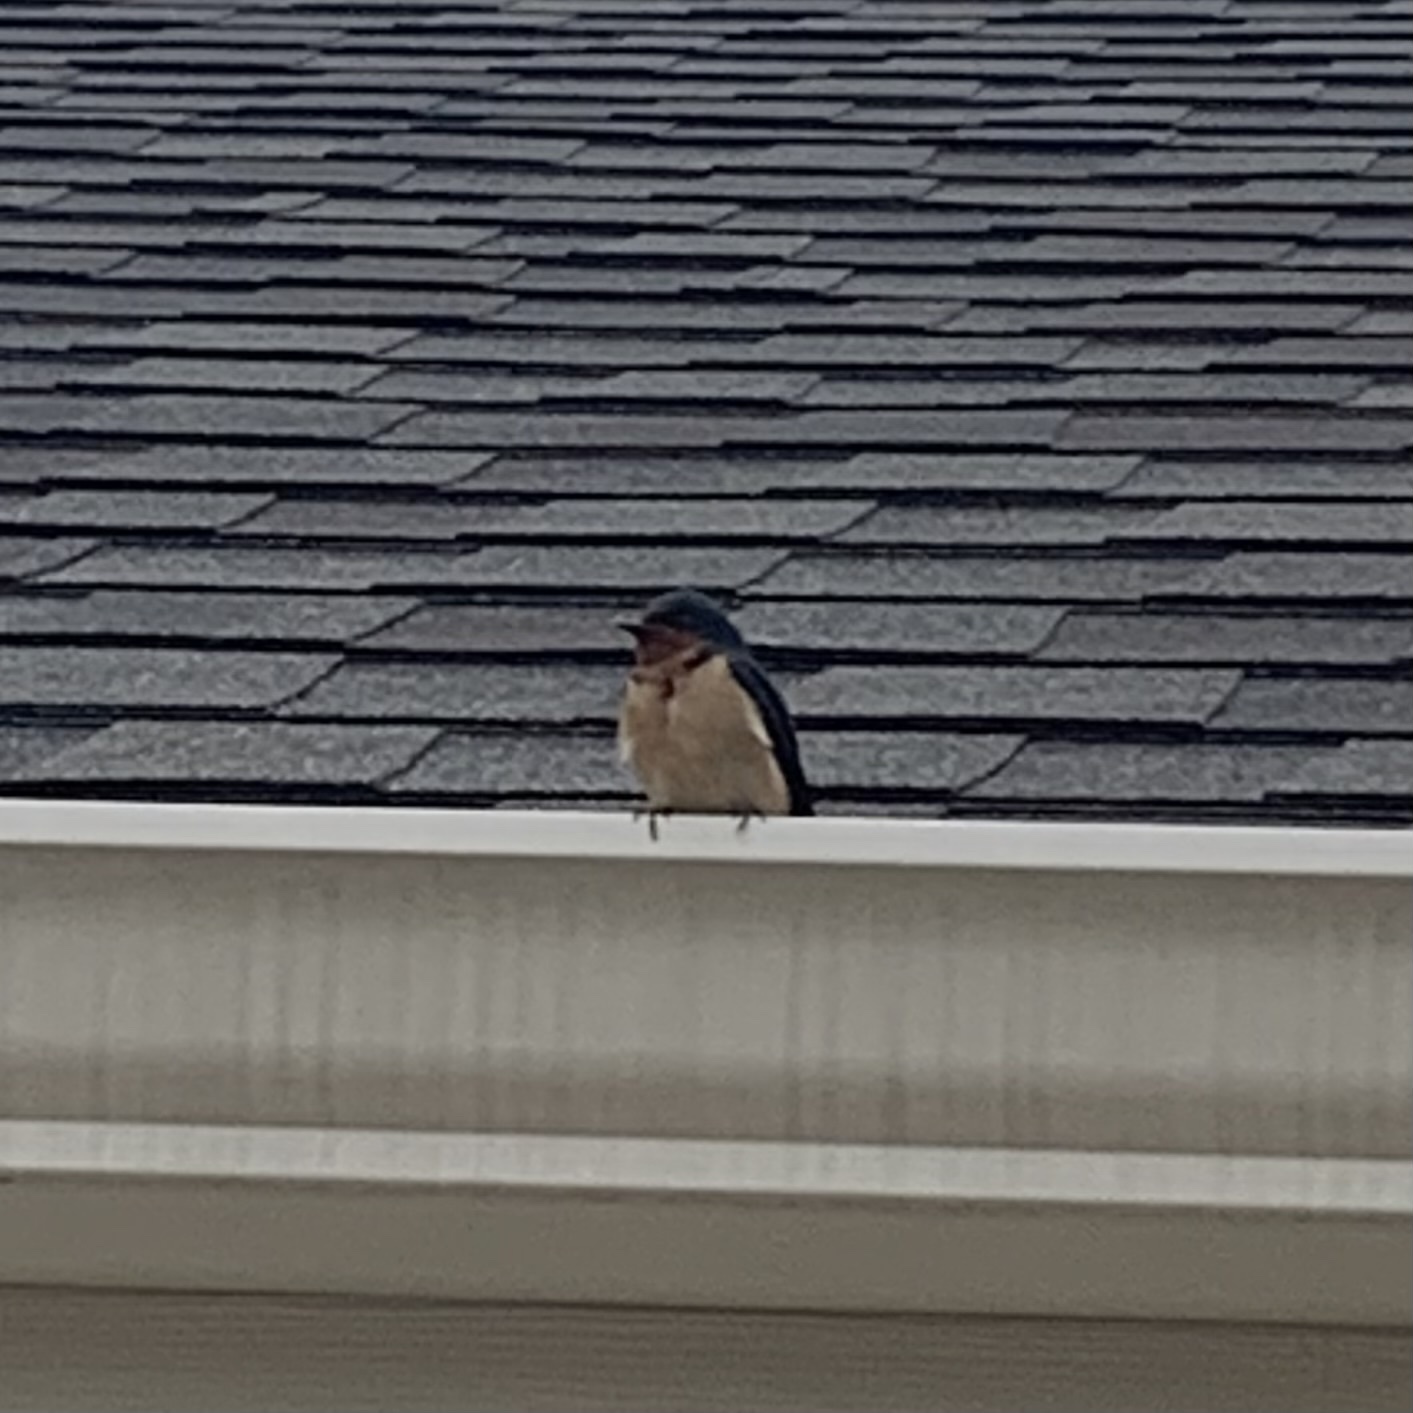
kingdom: Animalia
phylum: Chordata
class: Aves
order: Passeriformes
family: Hirundinidae
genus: Hirundo
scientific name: Hirundo rustica
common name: Barn swallow
